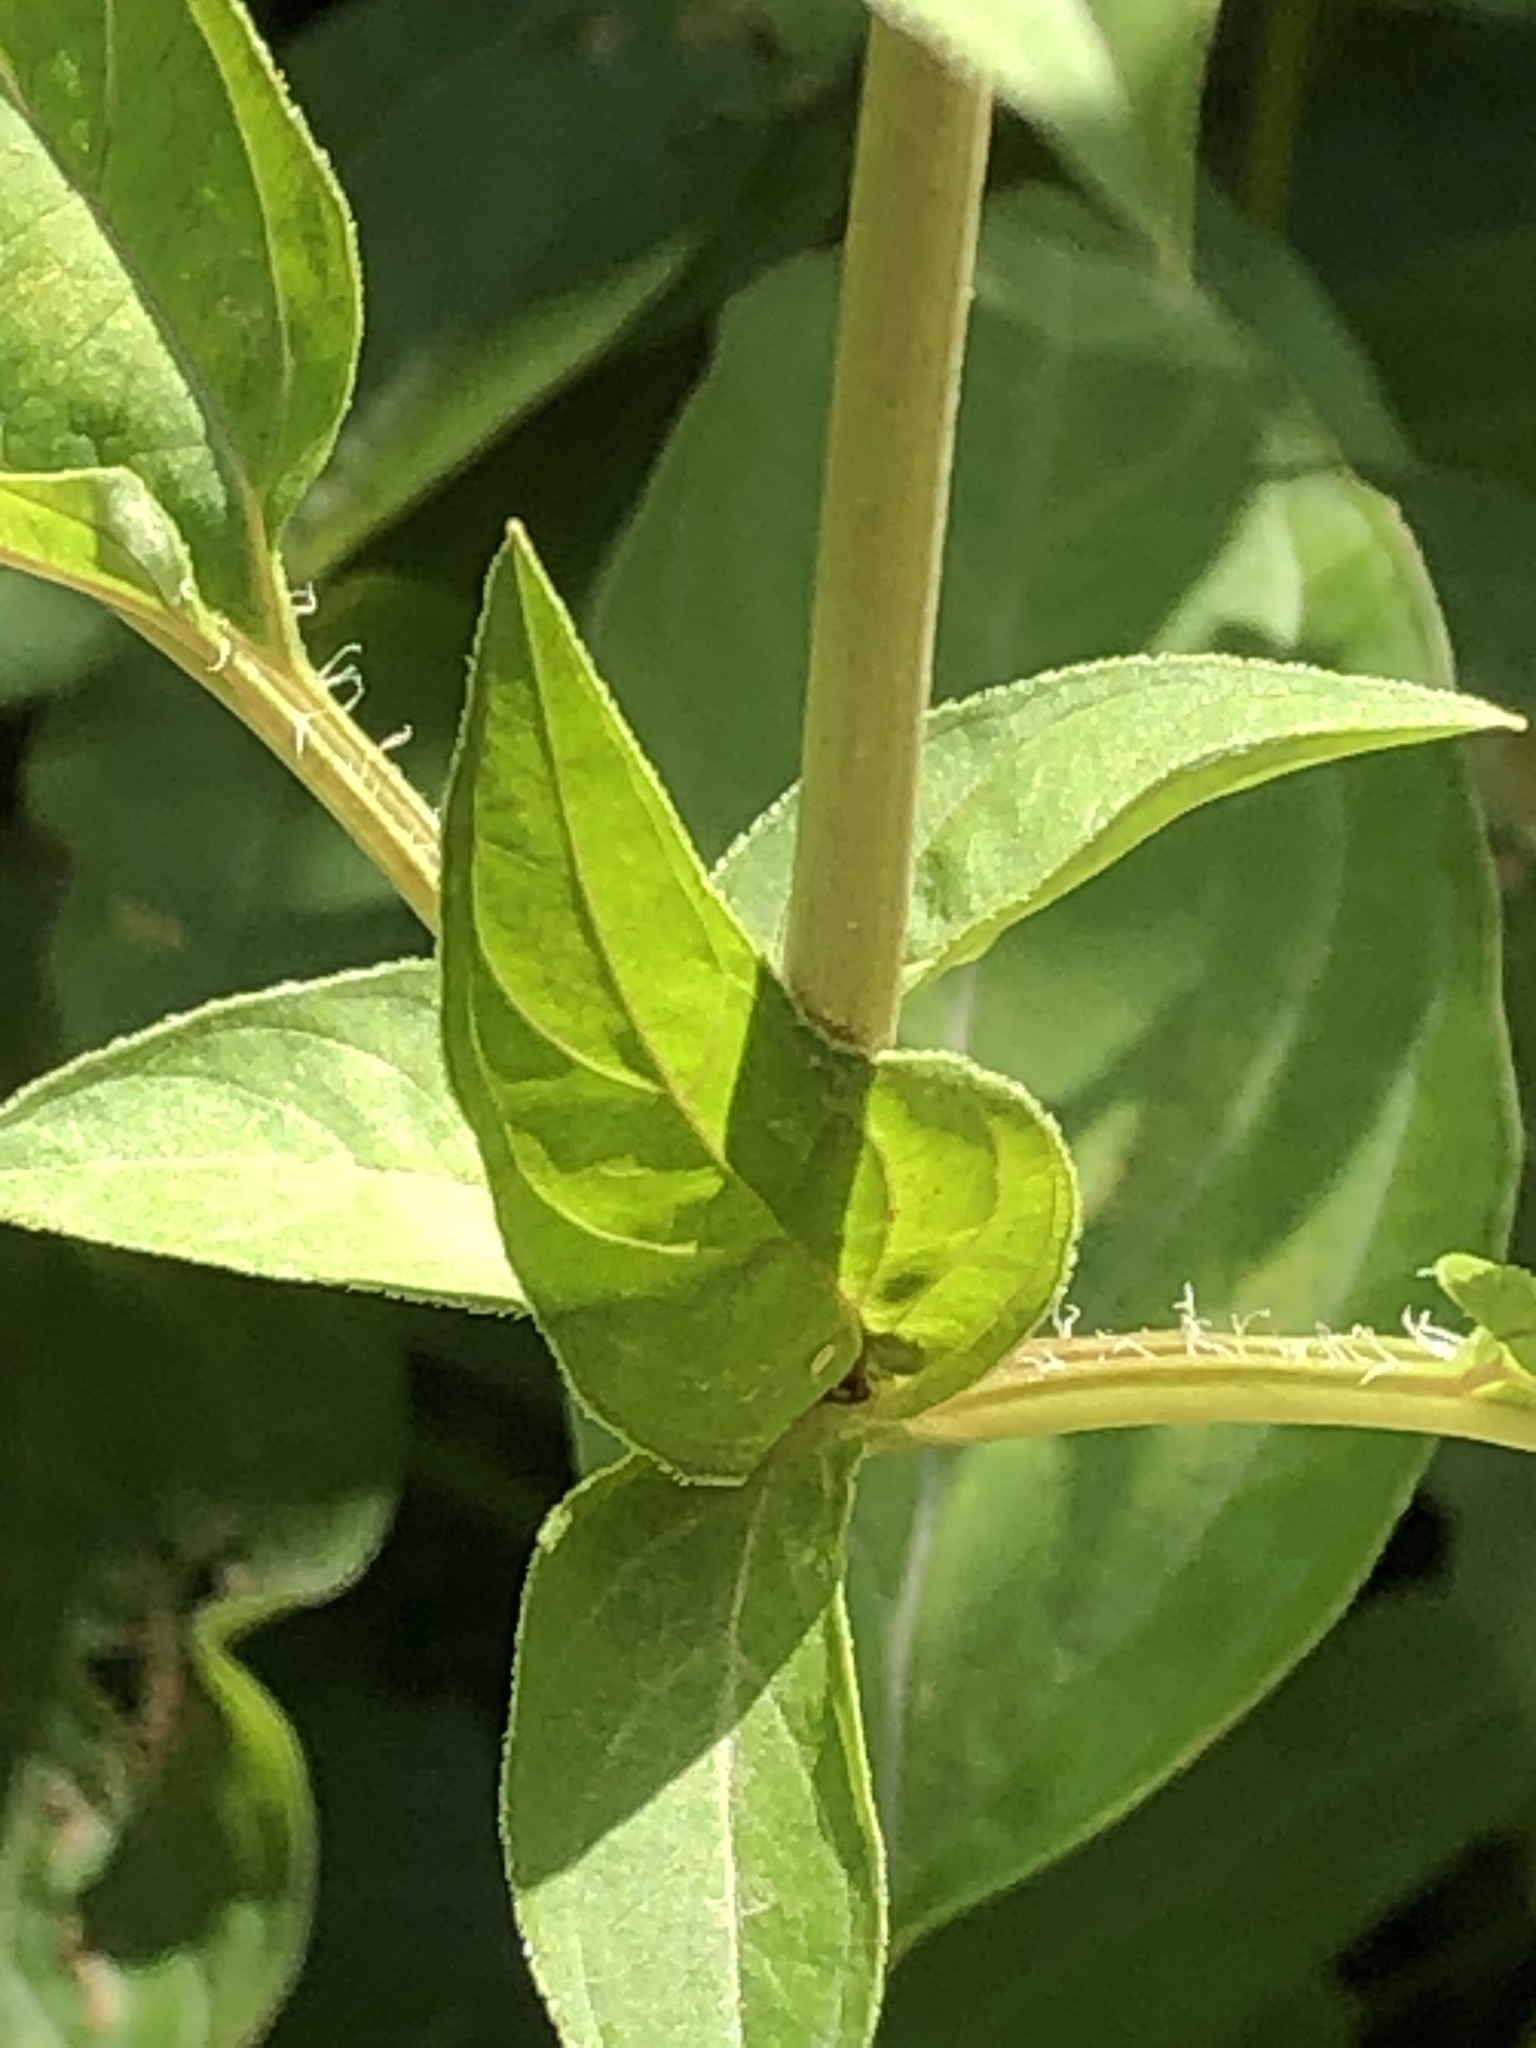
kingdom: Plantae
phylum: Tracheophyta
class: Magnoliopsida
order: Ericales
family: Primulaceae
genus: Lysimachia
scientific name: Lysimachia ciliata
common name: Fringed loosestrife
